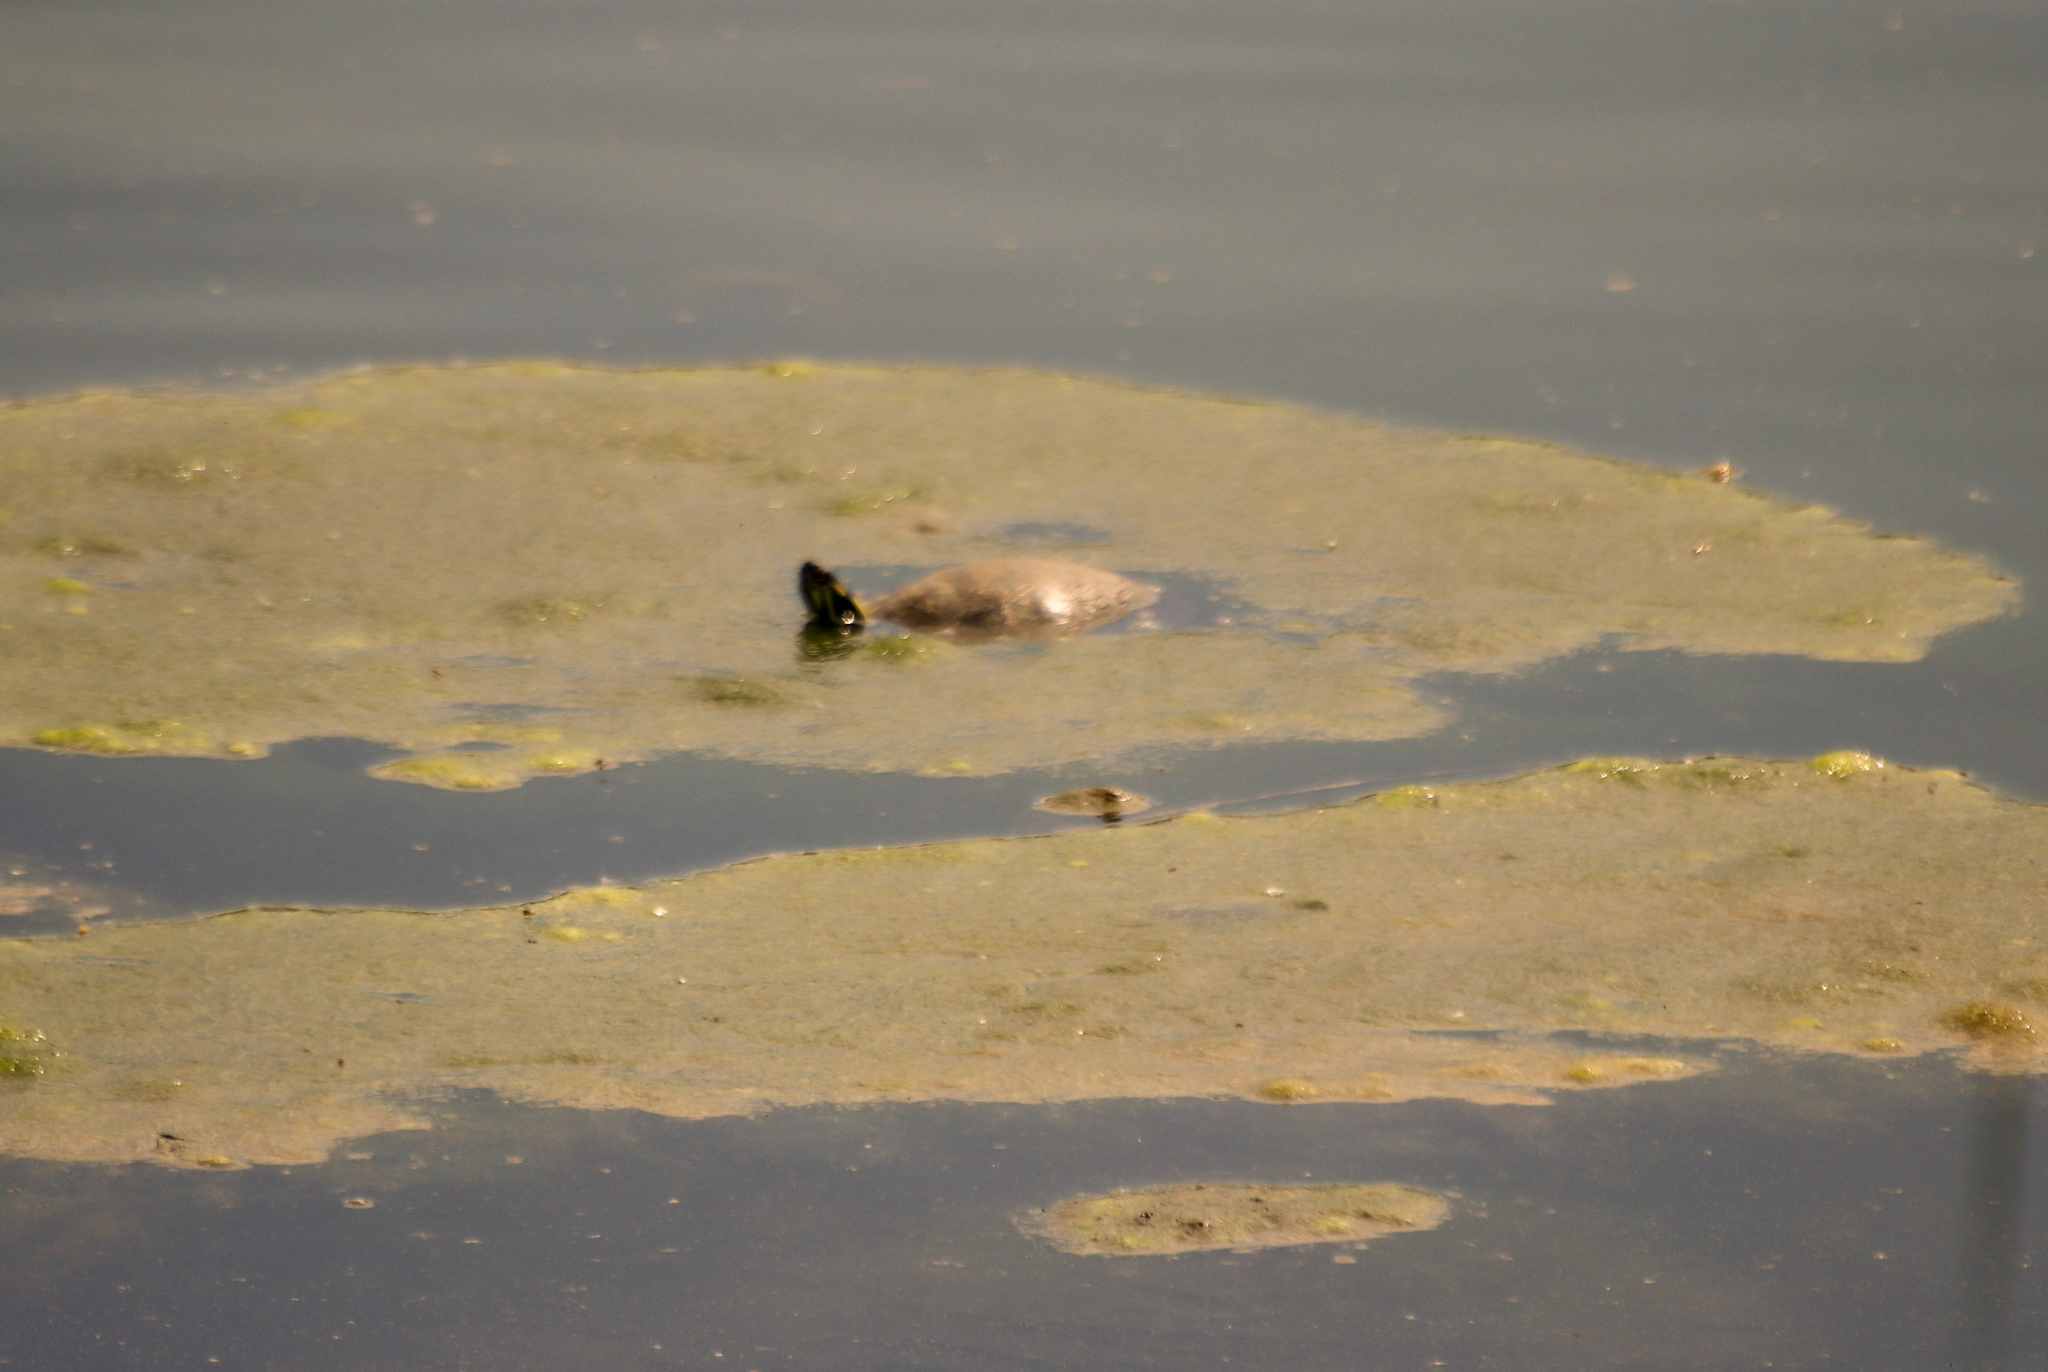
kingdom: Animalia
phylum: Chordata
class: Testudines
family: Emydidae
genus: Chrysemys
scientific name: Chrysemys picta
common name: Painted turtle
